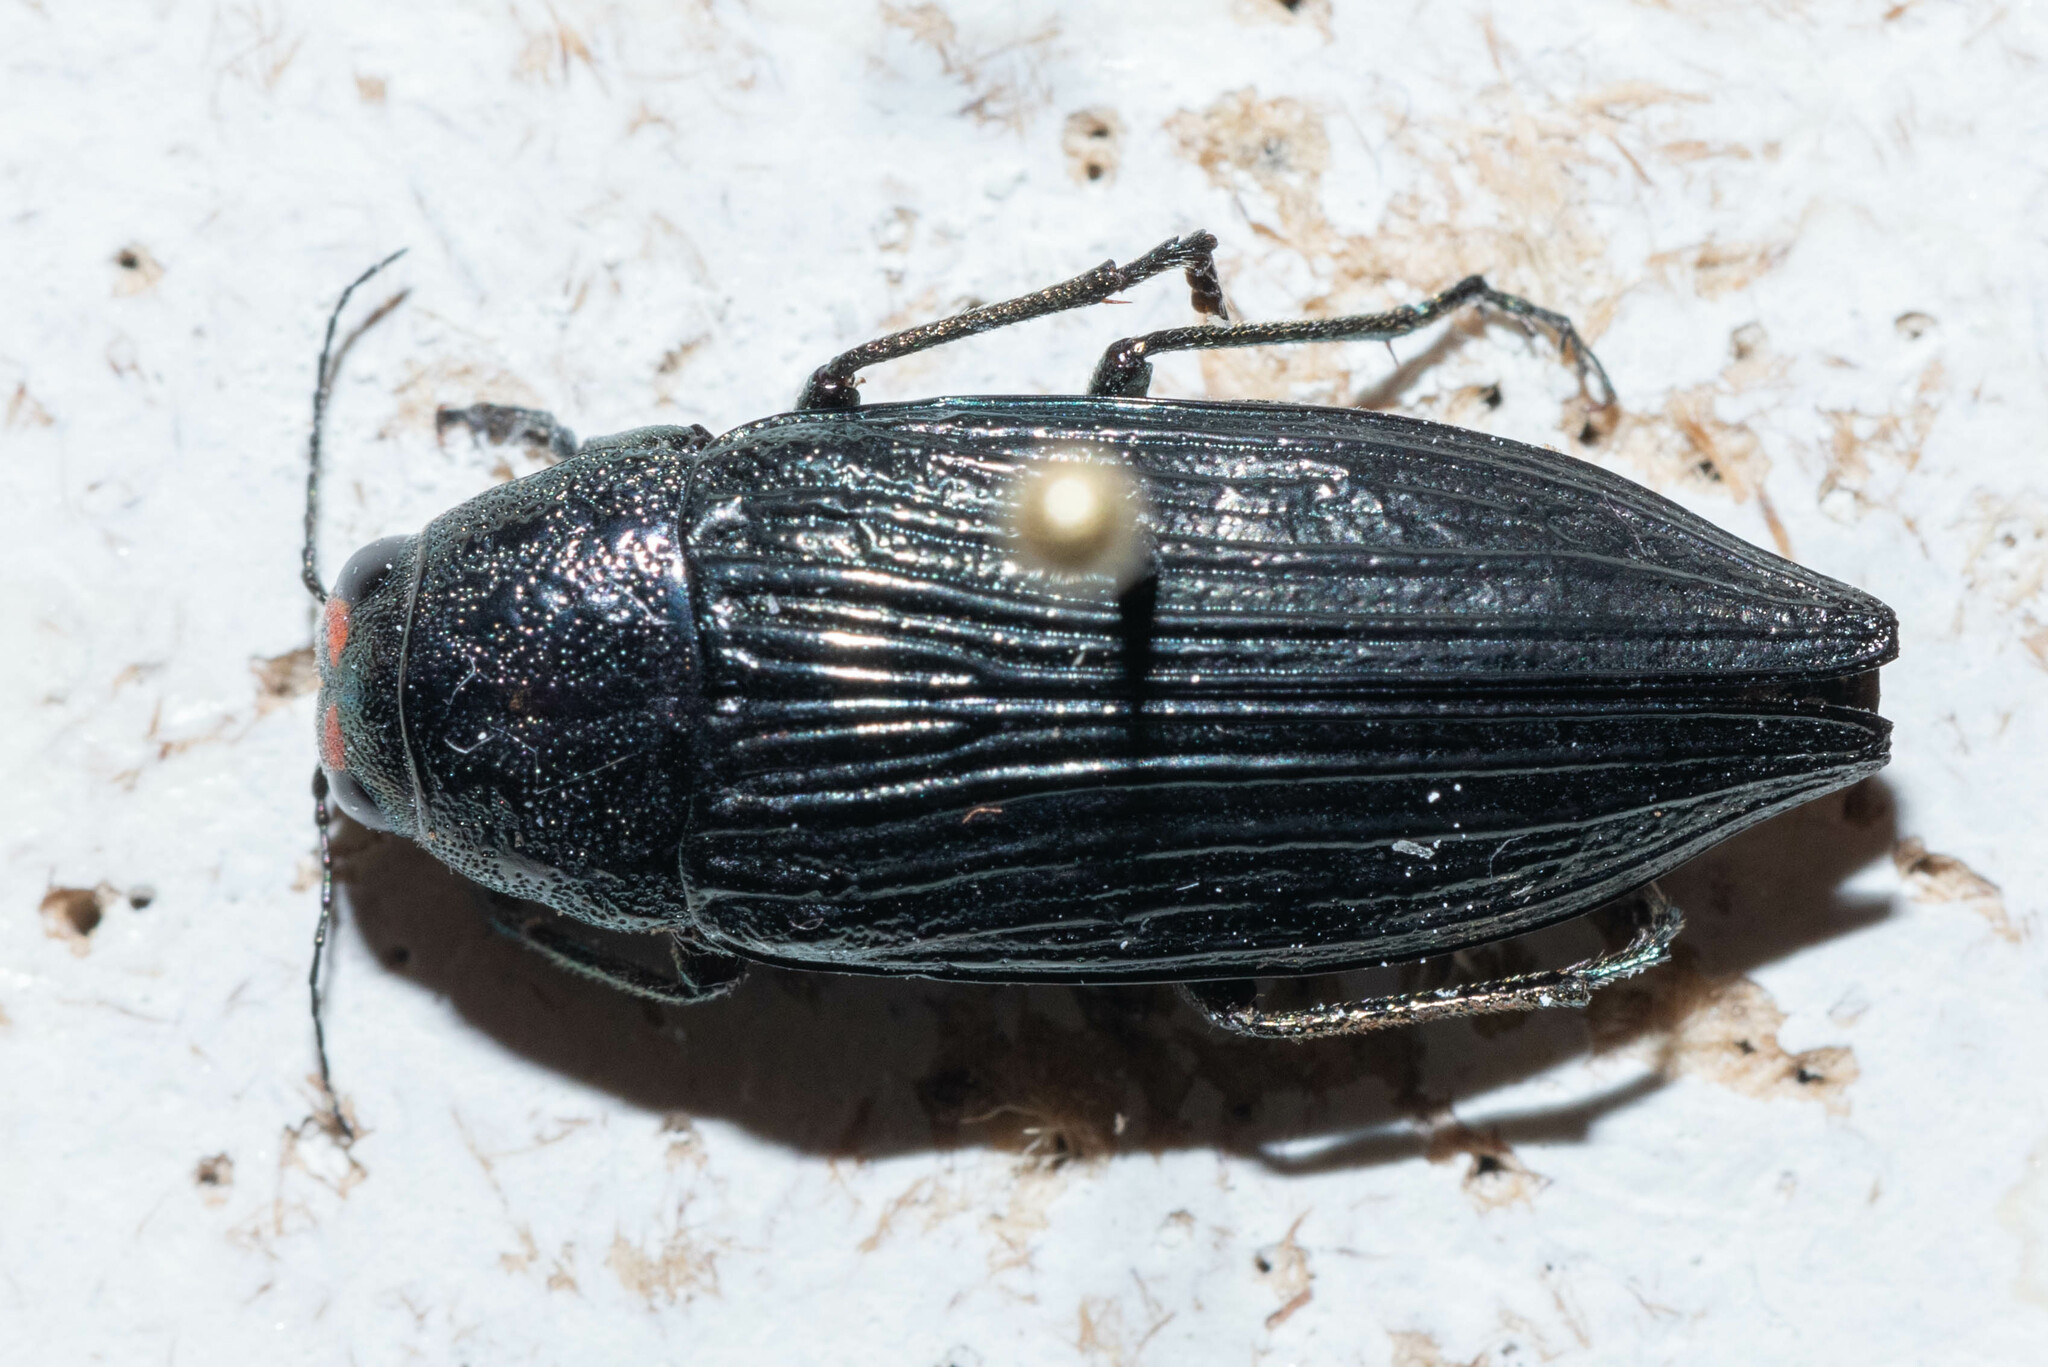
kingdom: Animalia
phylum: Arthropoda
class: Insecta
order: Coleoptera
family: Buprestidae
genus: Buprestis
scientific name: Buprestis lyrata
